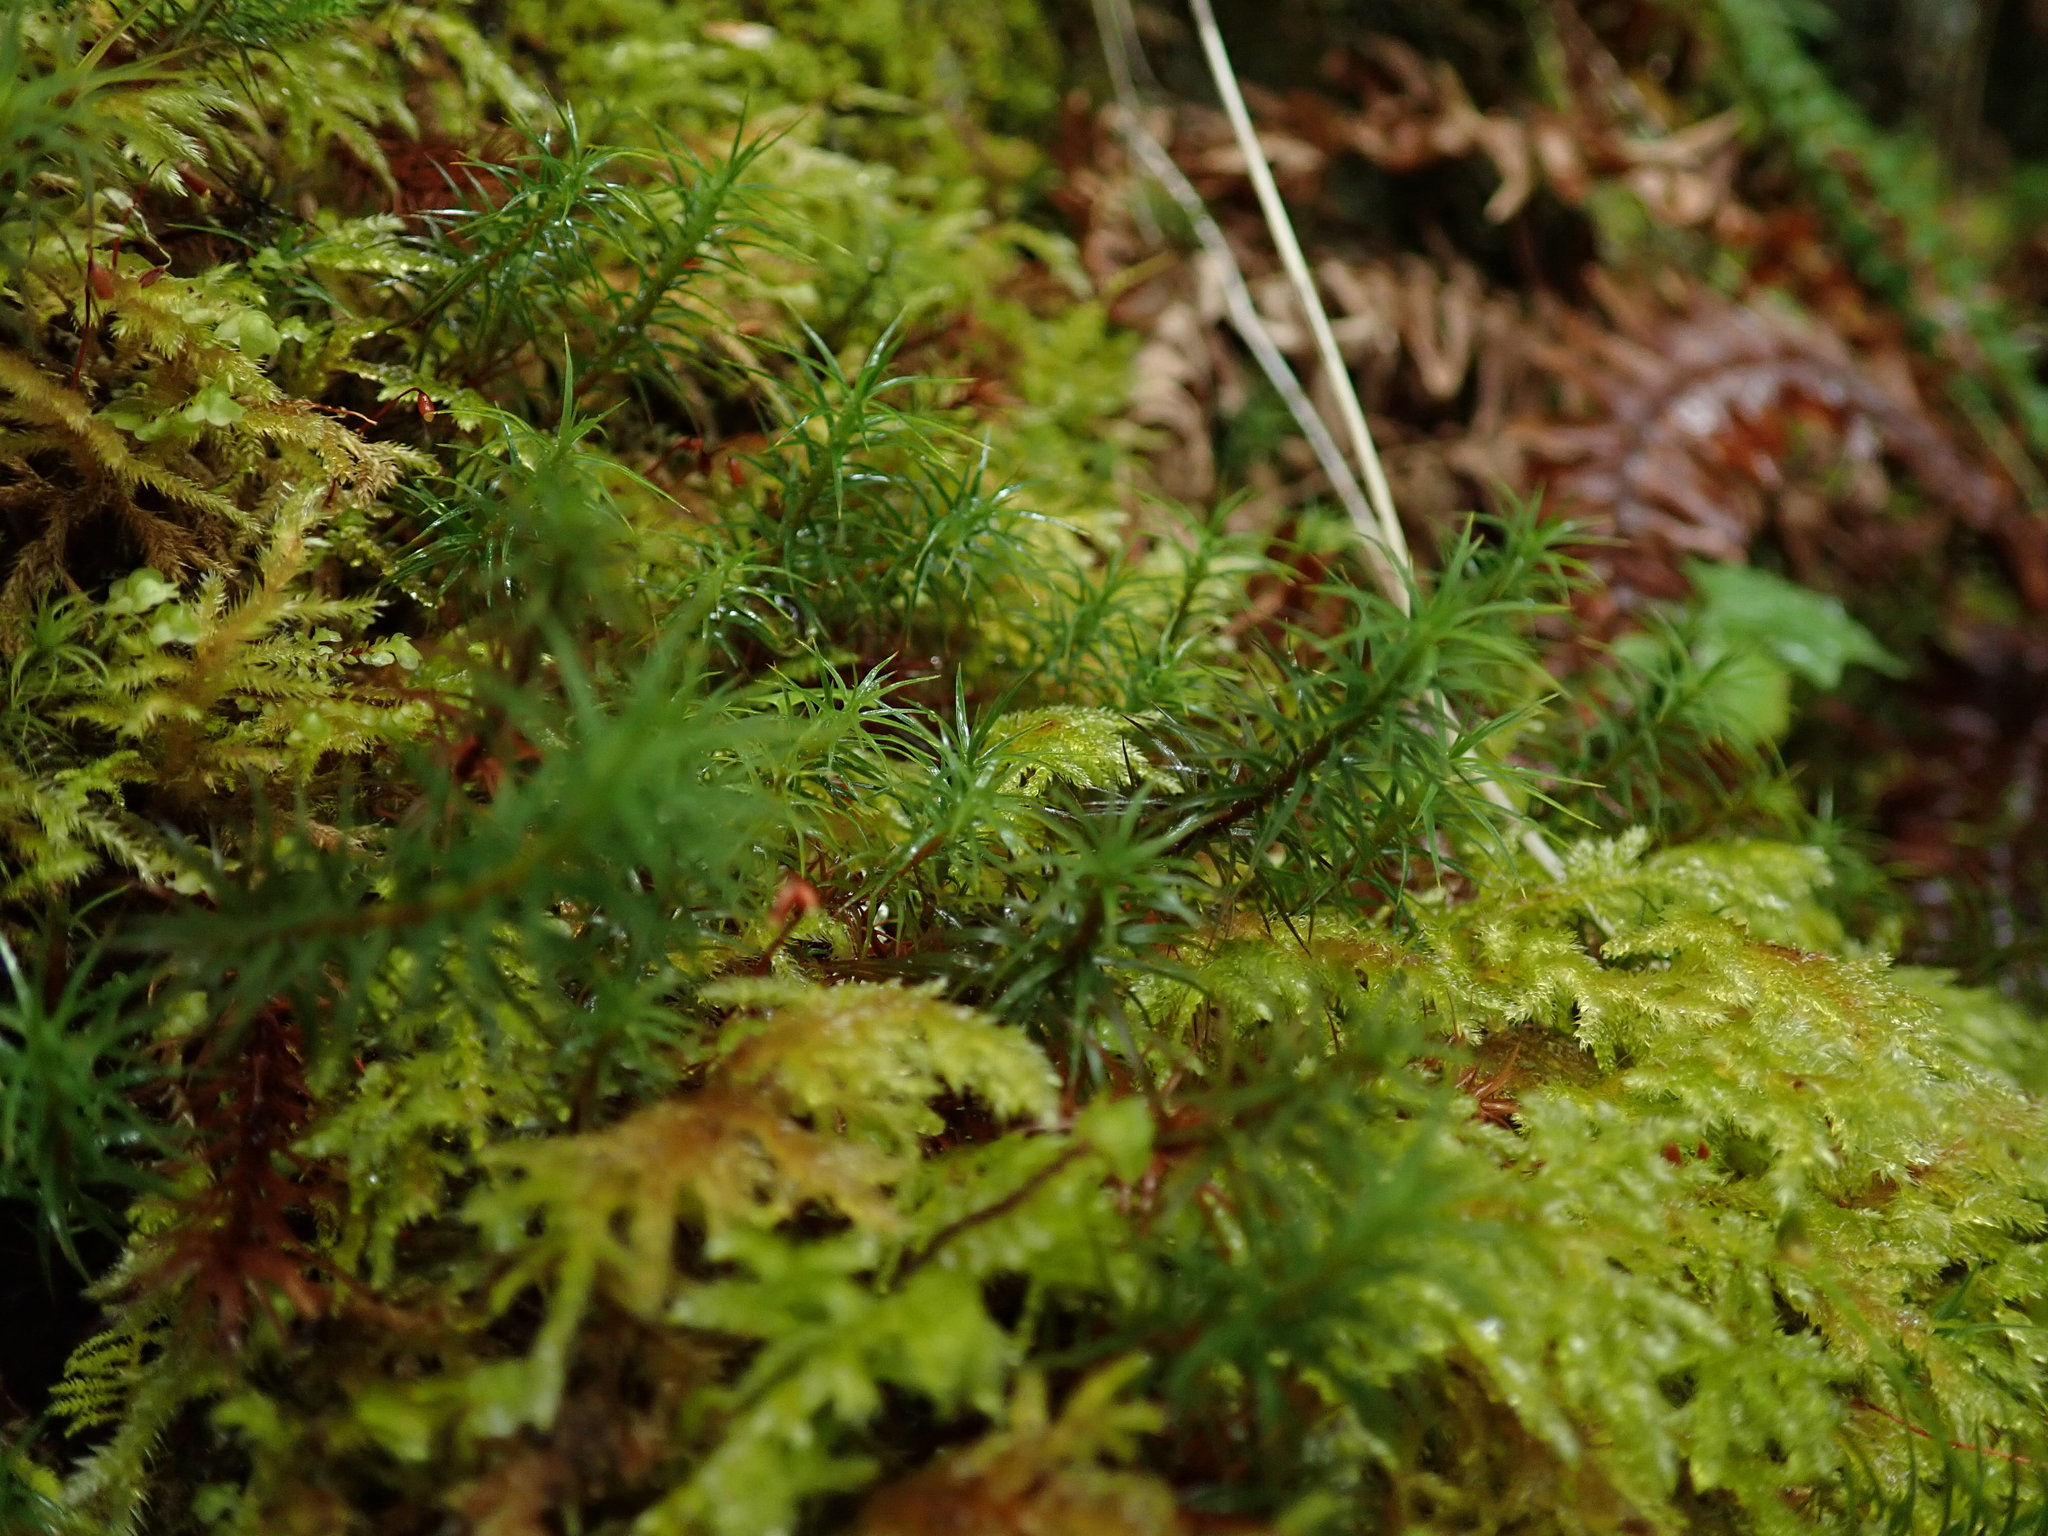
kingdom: Plantae
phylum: Bryophyta
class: Polytrichopsida
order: Polytrichales
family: Polytrichaceae
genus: Polytrichastrum
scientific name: Polytrichastrum alpinum
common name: Alpine haircap
